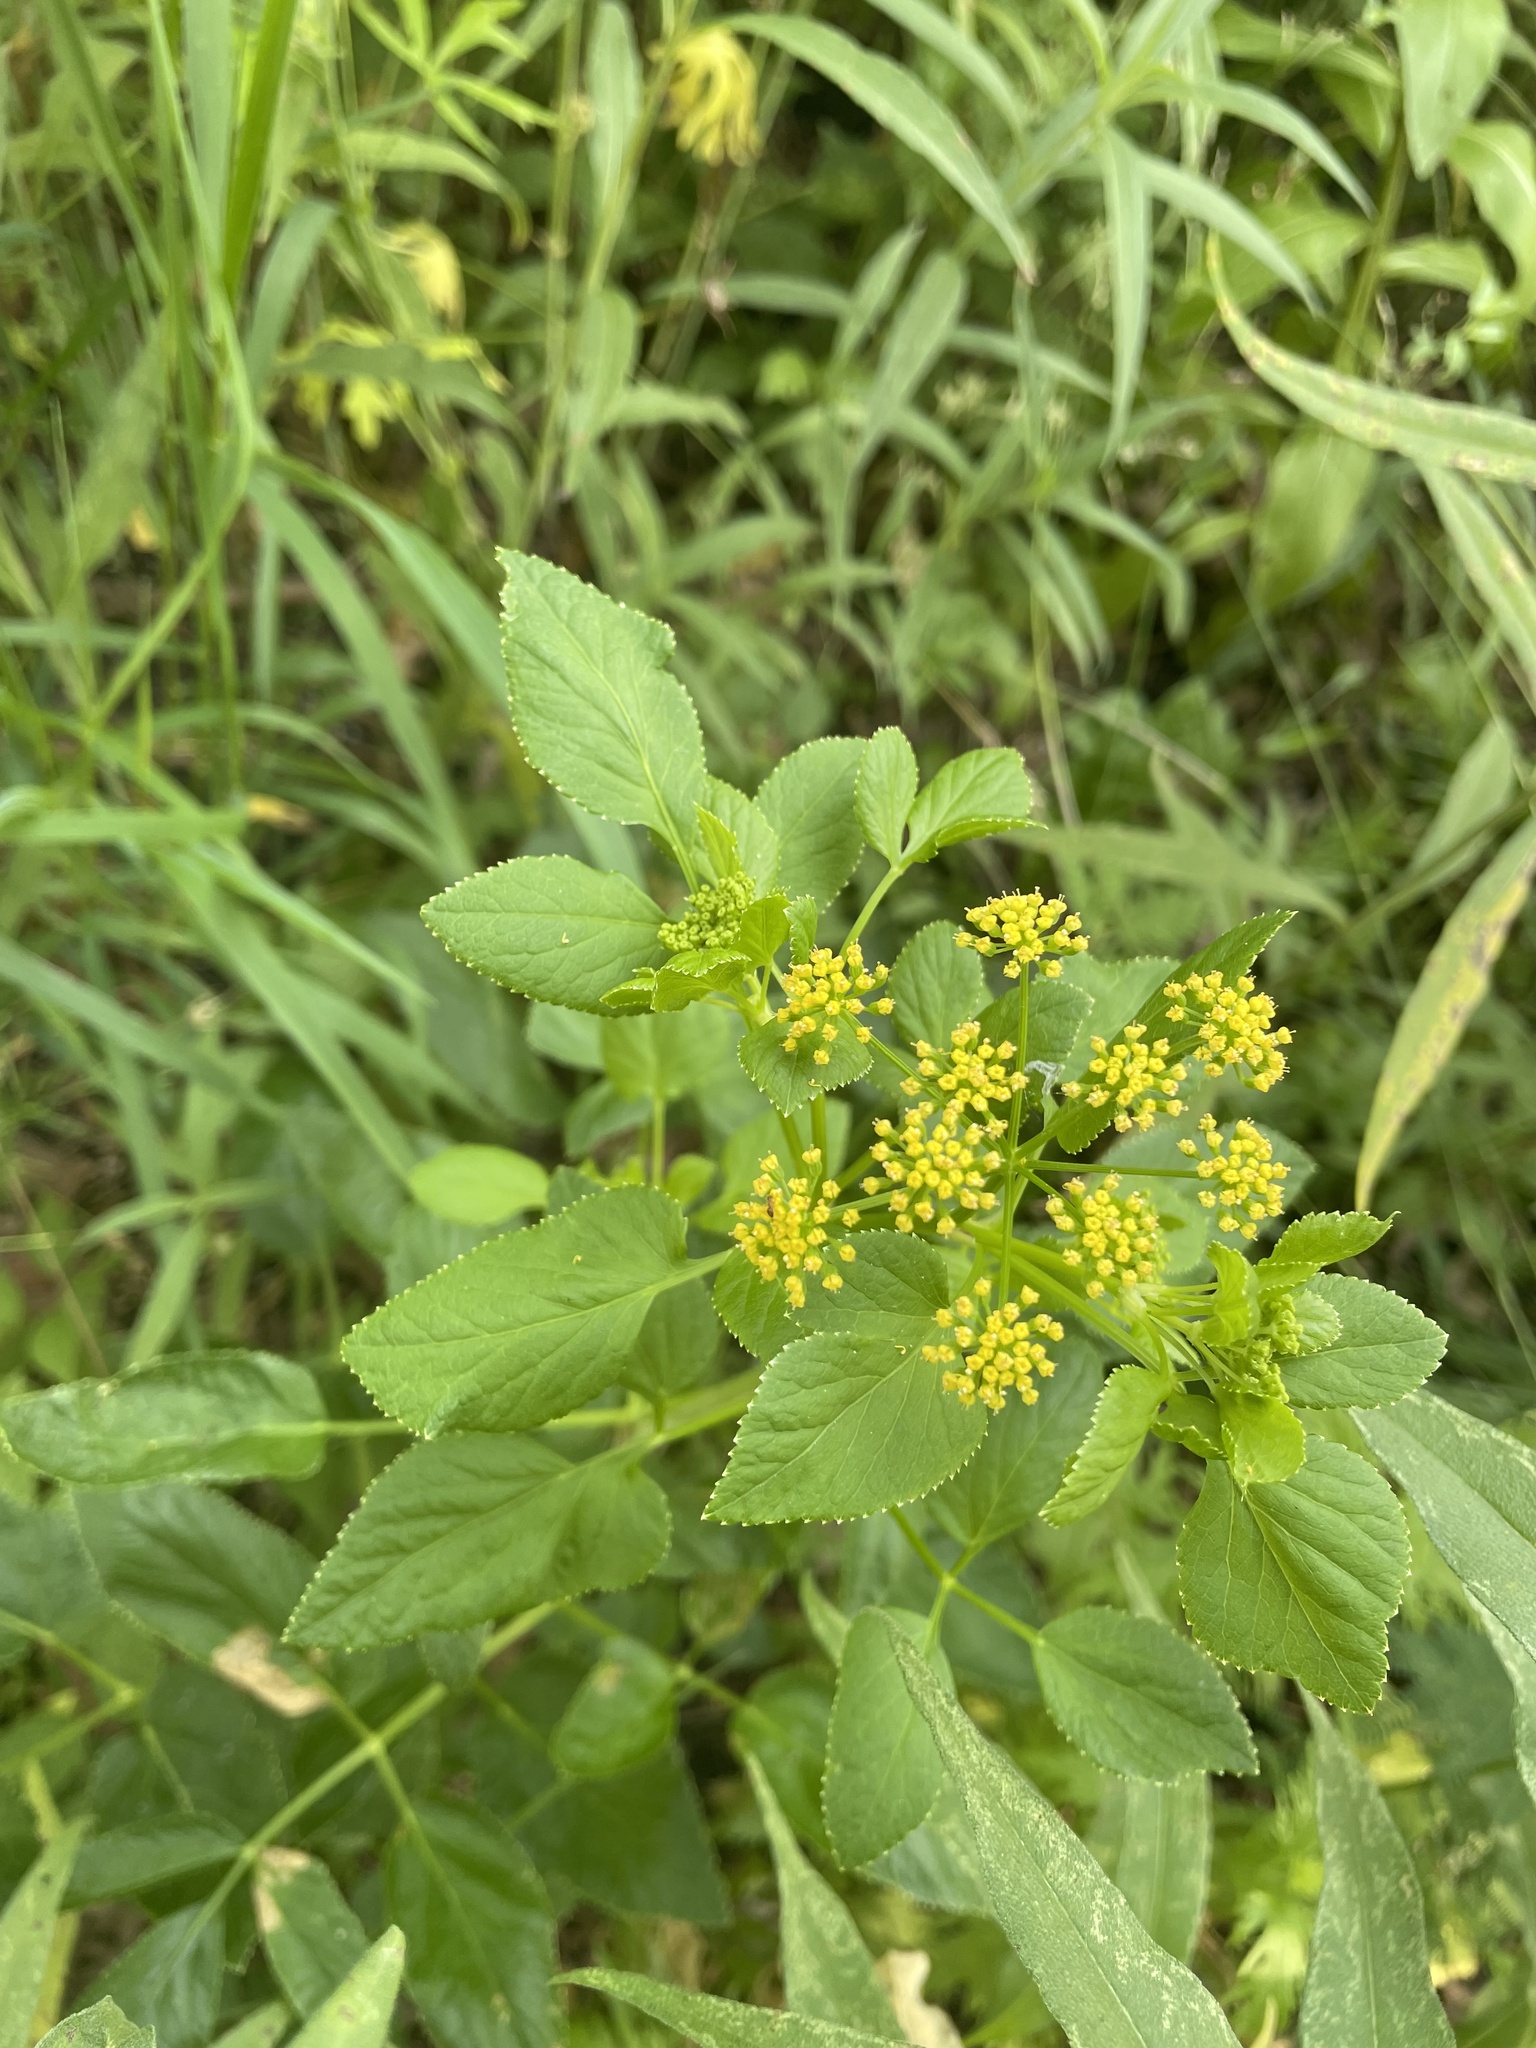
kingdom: Plantae
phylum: Tracheophyta
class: Magnoliopsida
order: Apiales
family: Apiaceae
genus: Zizia
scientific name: Zizia aurea
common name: Golden alexanders
